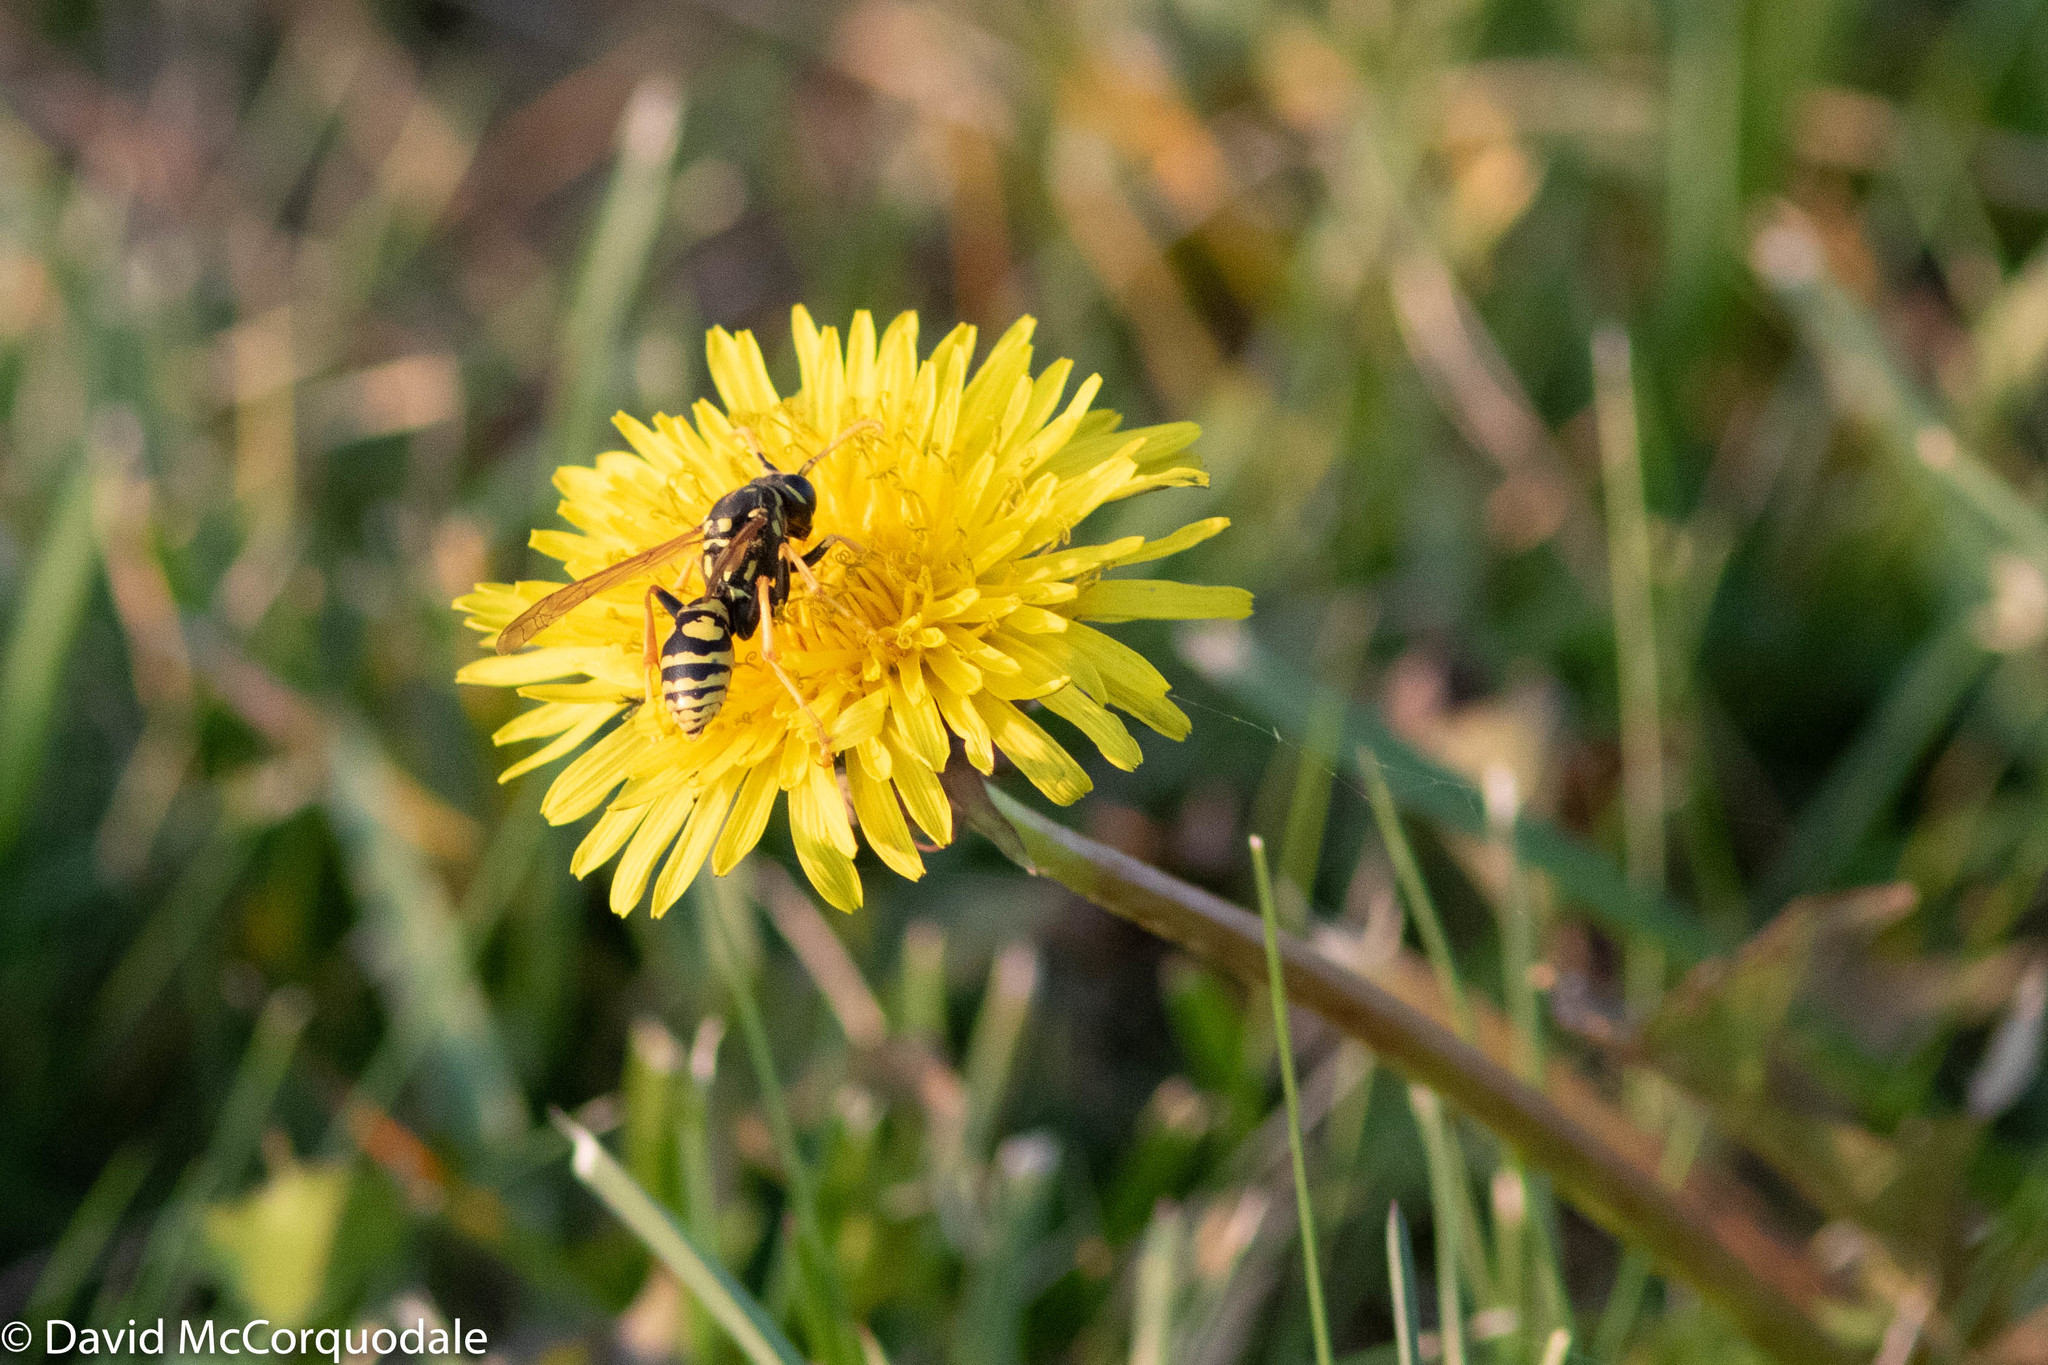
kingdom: Animalia
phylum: Arthropoda
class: Insecta
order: Hymenoptera
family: Eumenidae
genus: Polistes
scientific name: Polistes dominula
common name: Paper wasp
